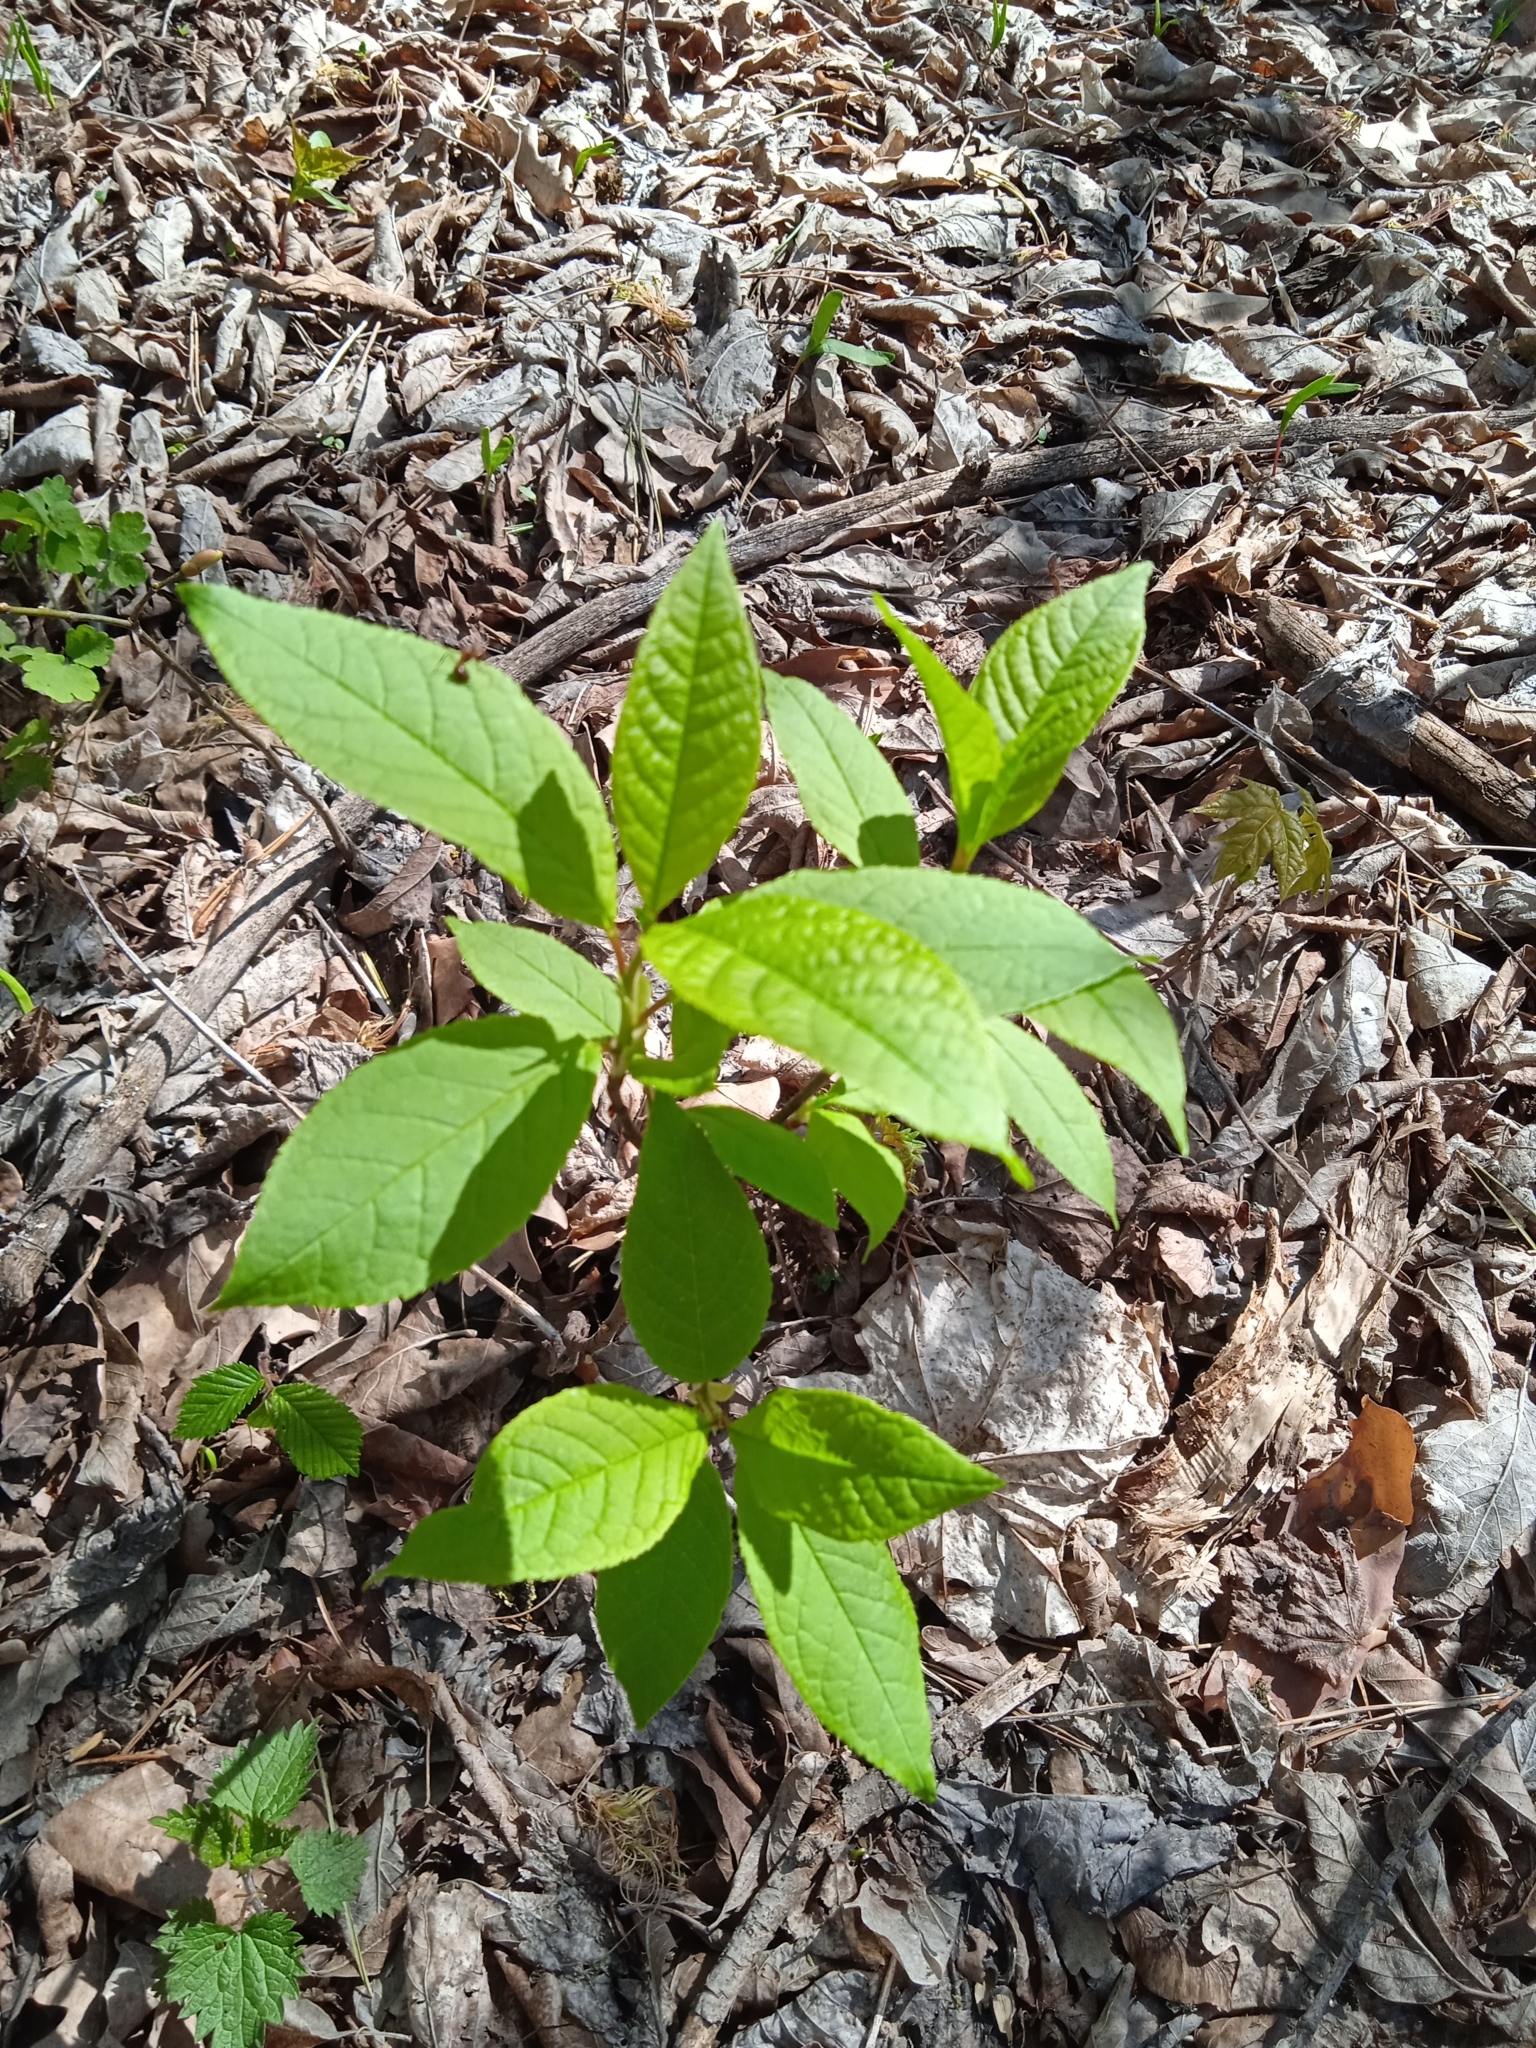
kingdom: Plantae
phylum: Tracheophyta
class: Magnoliopsida
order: Rosales
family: Rosaceae
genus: Prunus
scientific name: Prunus padus
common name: Bird cherry
